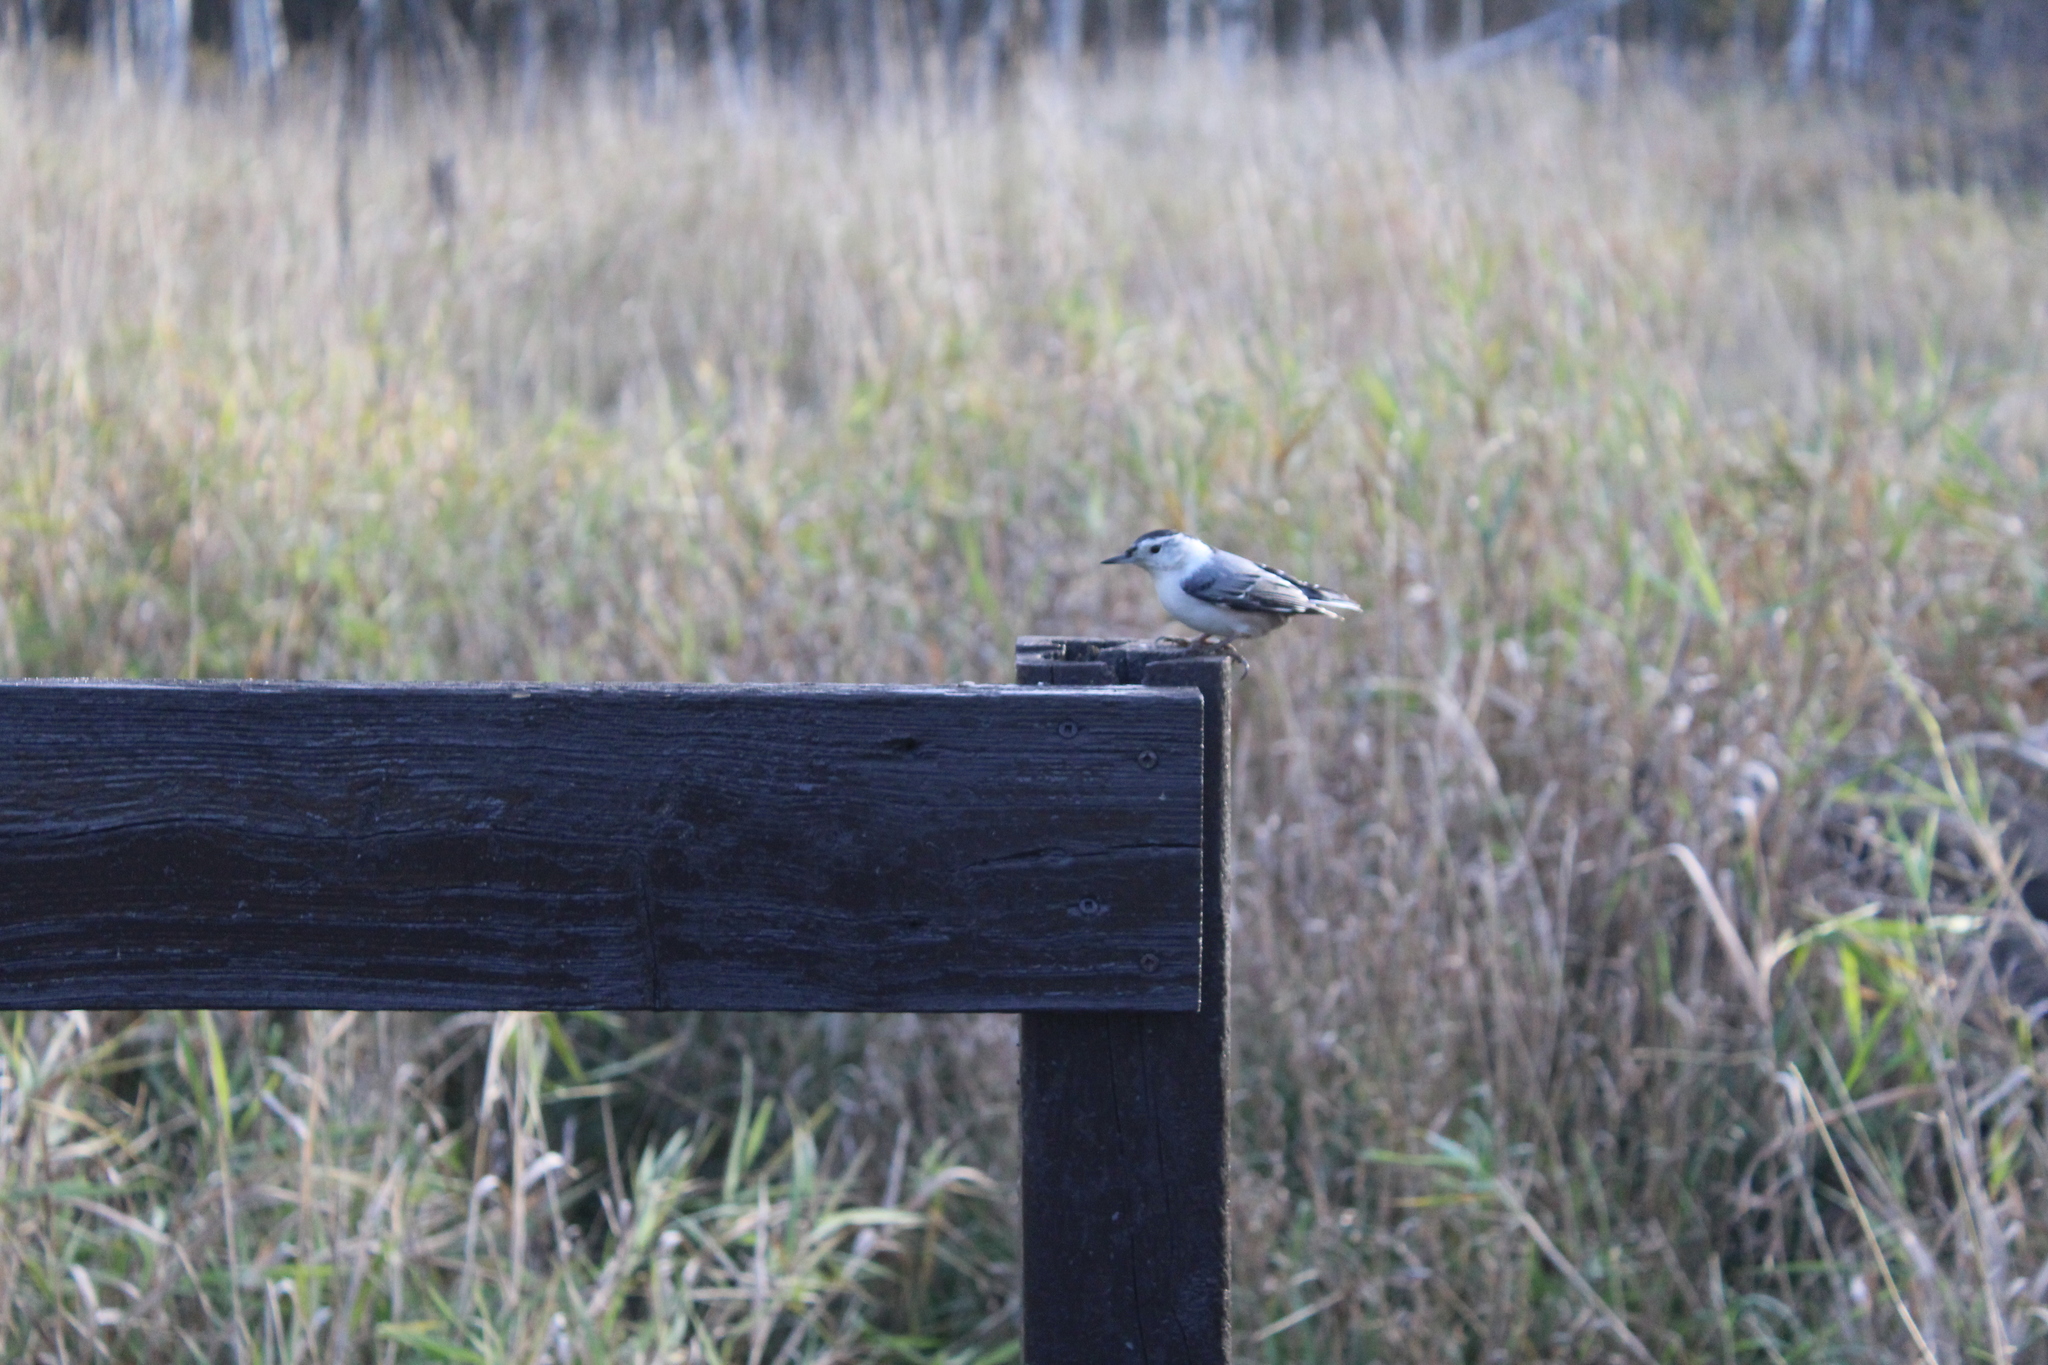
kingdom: Animalia
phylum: Chordata
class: Aves
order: Passeriformes
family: Sittidae
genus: Sitta
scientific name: Sitta carolinensis
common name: White-breasted nuthatch
